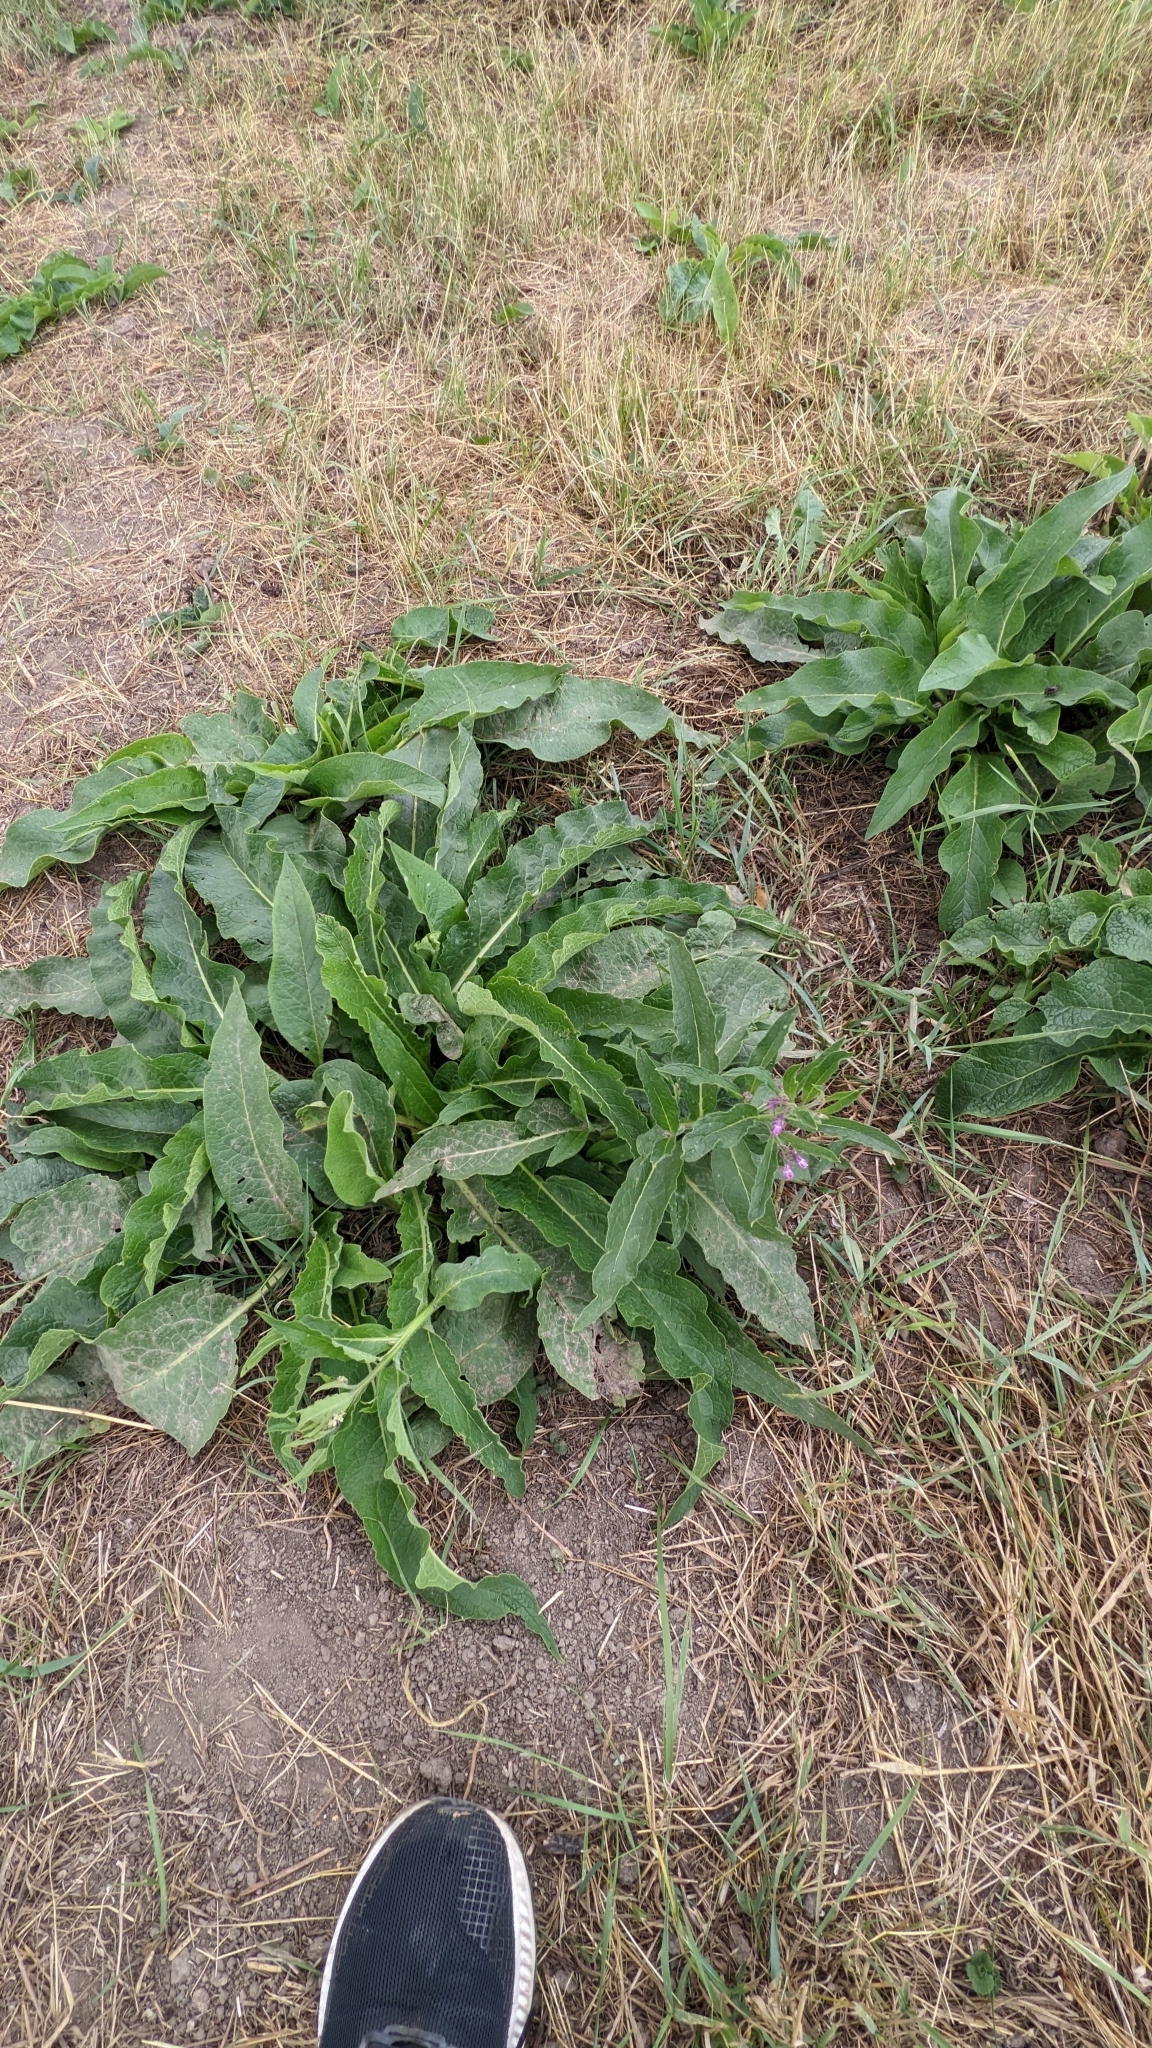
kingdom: Plantae
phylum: Tracheophyta
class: Magnoliopsida
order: Boraginales
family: Boraginaceae
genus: Symphytum
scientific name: Symphytum officinale
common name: Common comfrey
